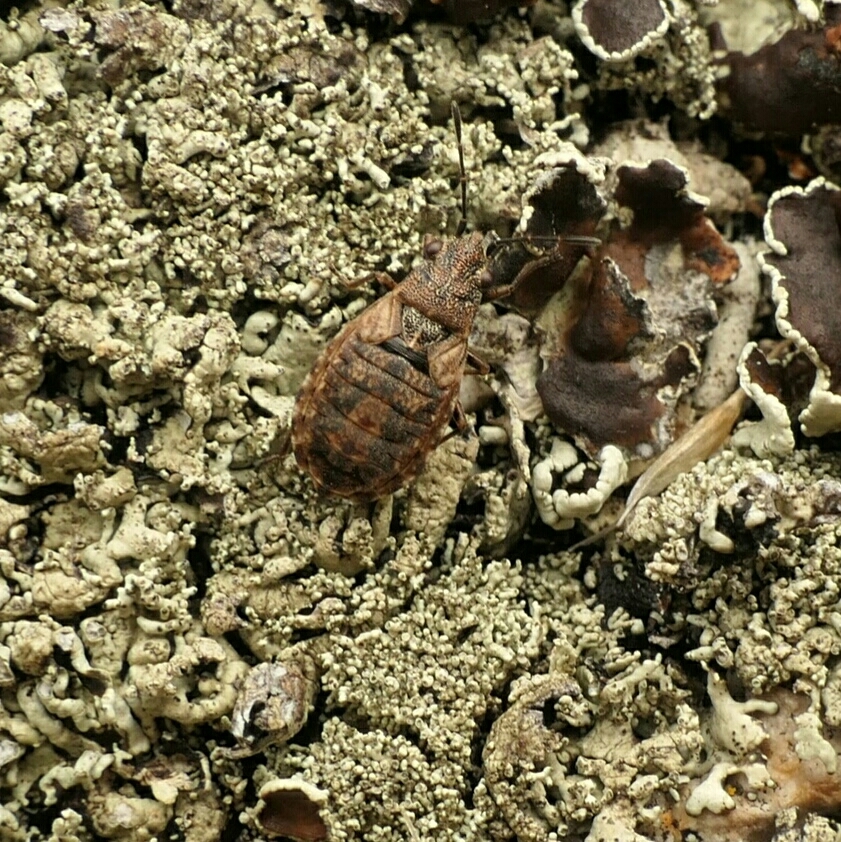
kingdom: Animalia
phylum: Arthropoda
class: Insecta
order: Hemiptera
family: Lygaeidae
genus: Nithecus
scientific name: Nithecus jacobaeae
